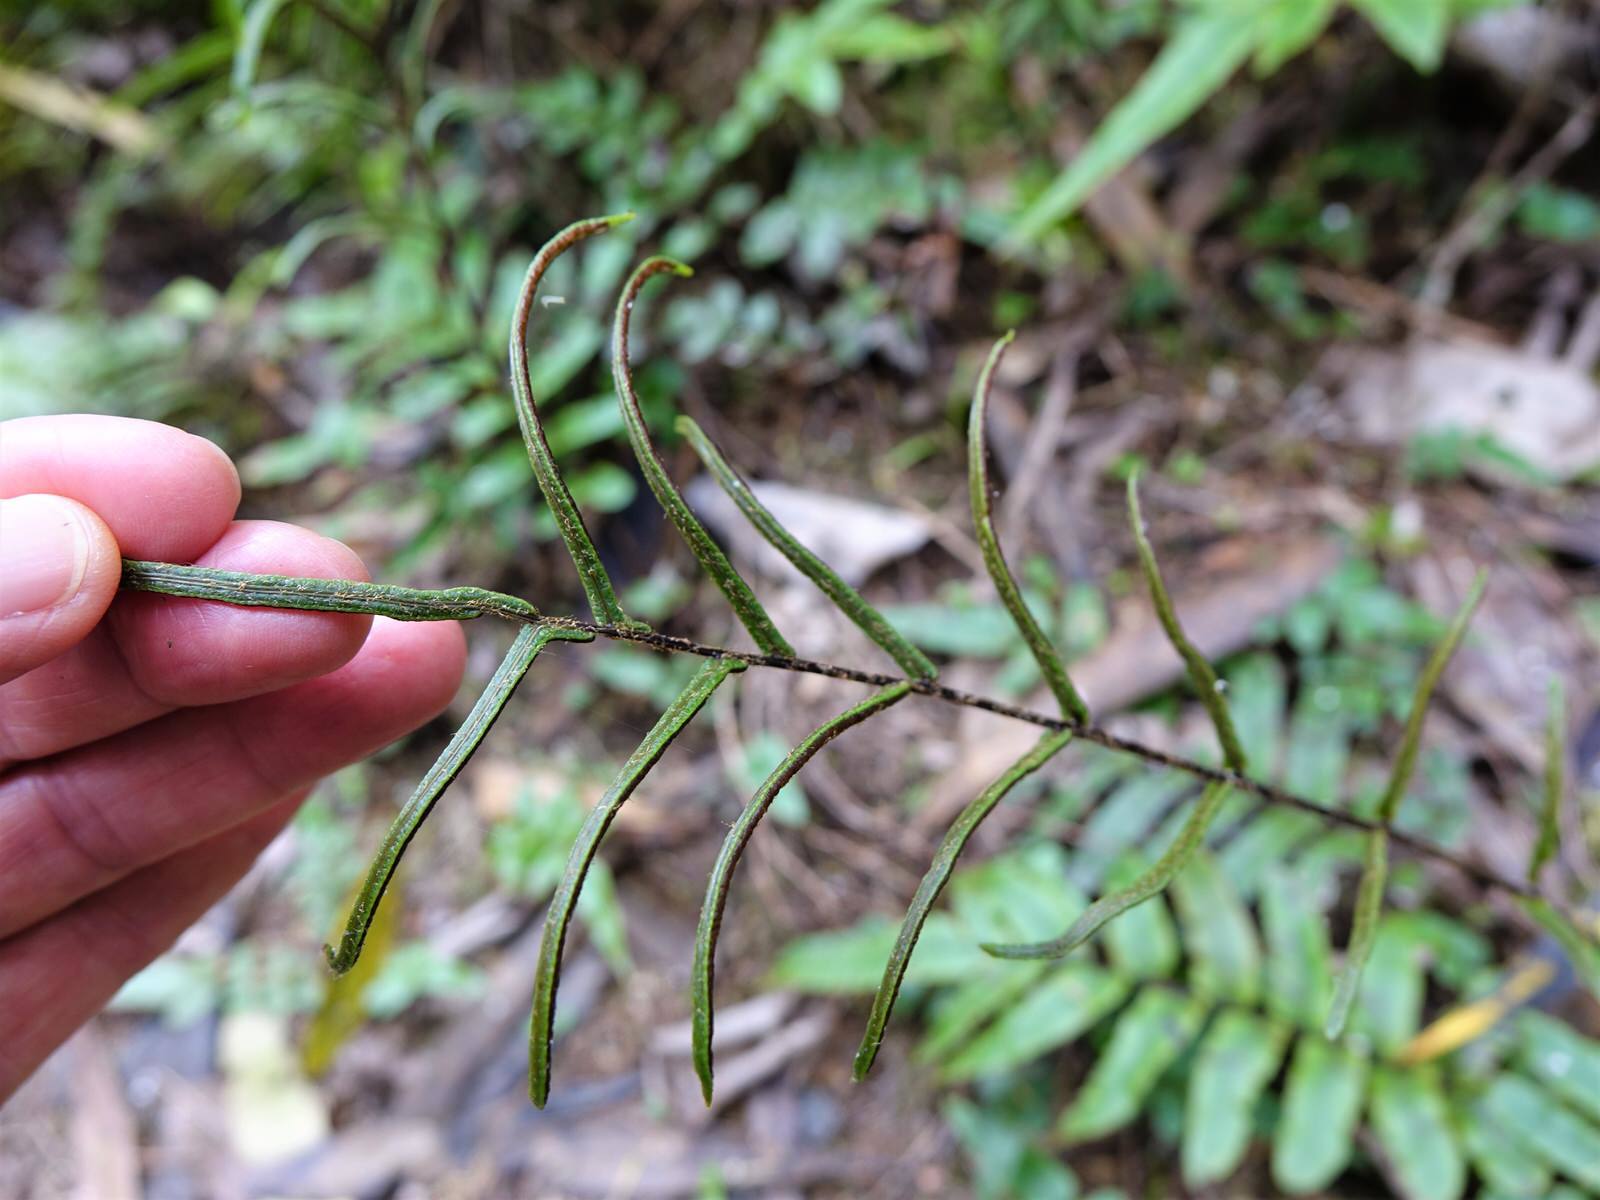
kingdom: Plantae
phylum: Tracheophyta
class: Polypodiopsida
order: Polypodiales
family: Blechnaceae
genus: Parablechnum
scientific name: Parablechnum procerum
